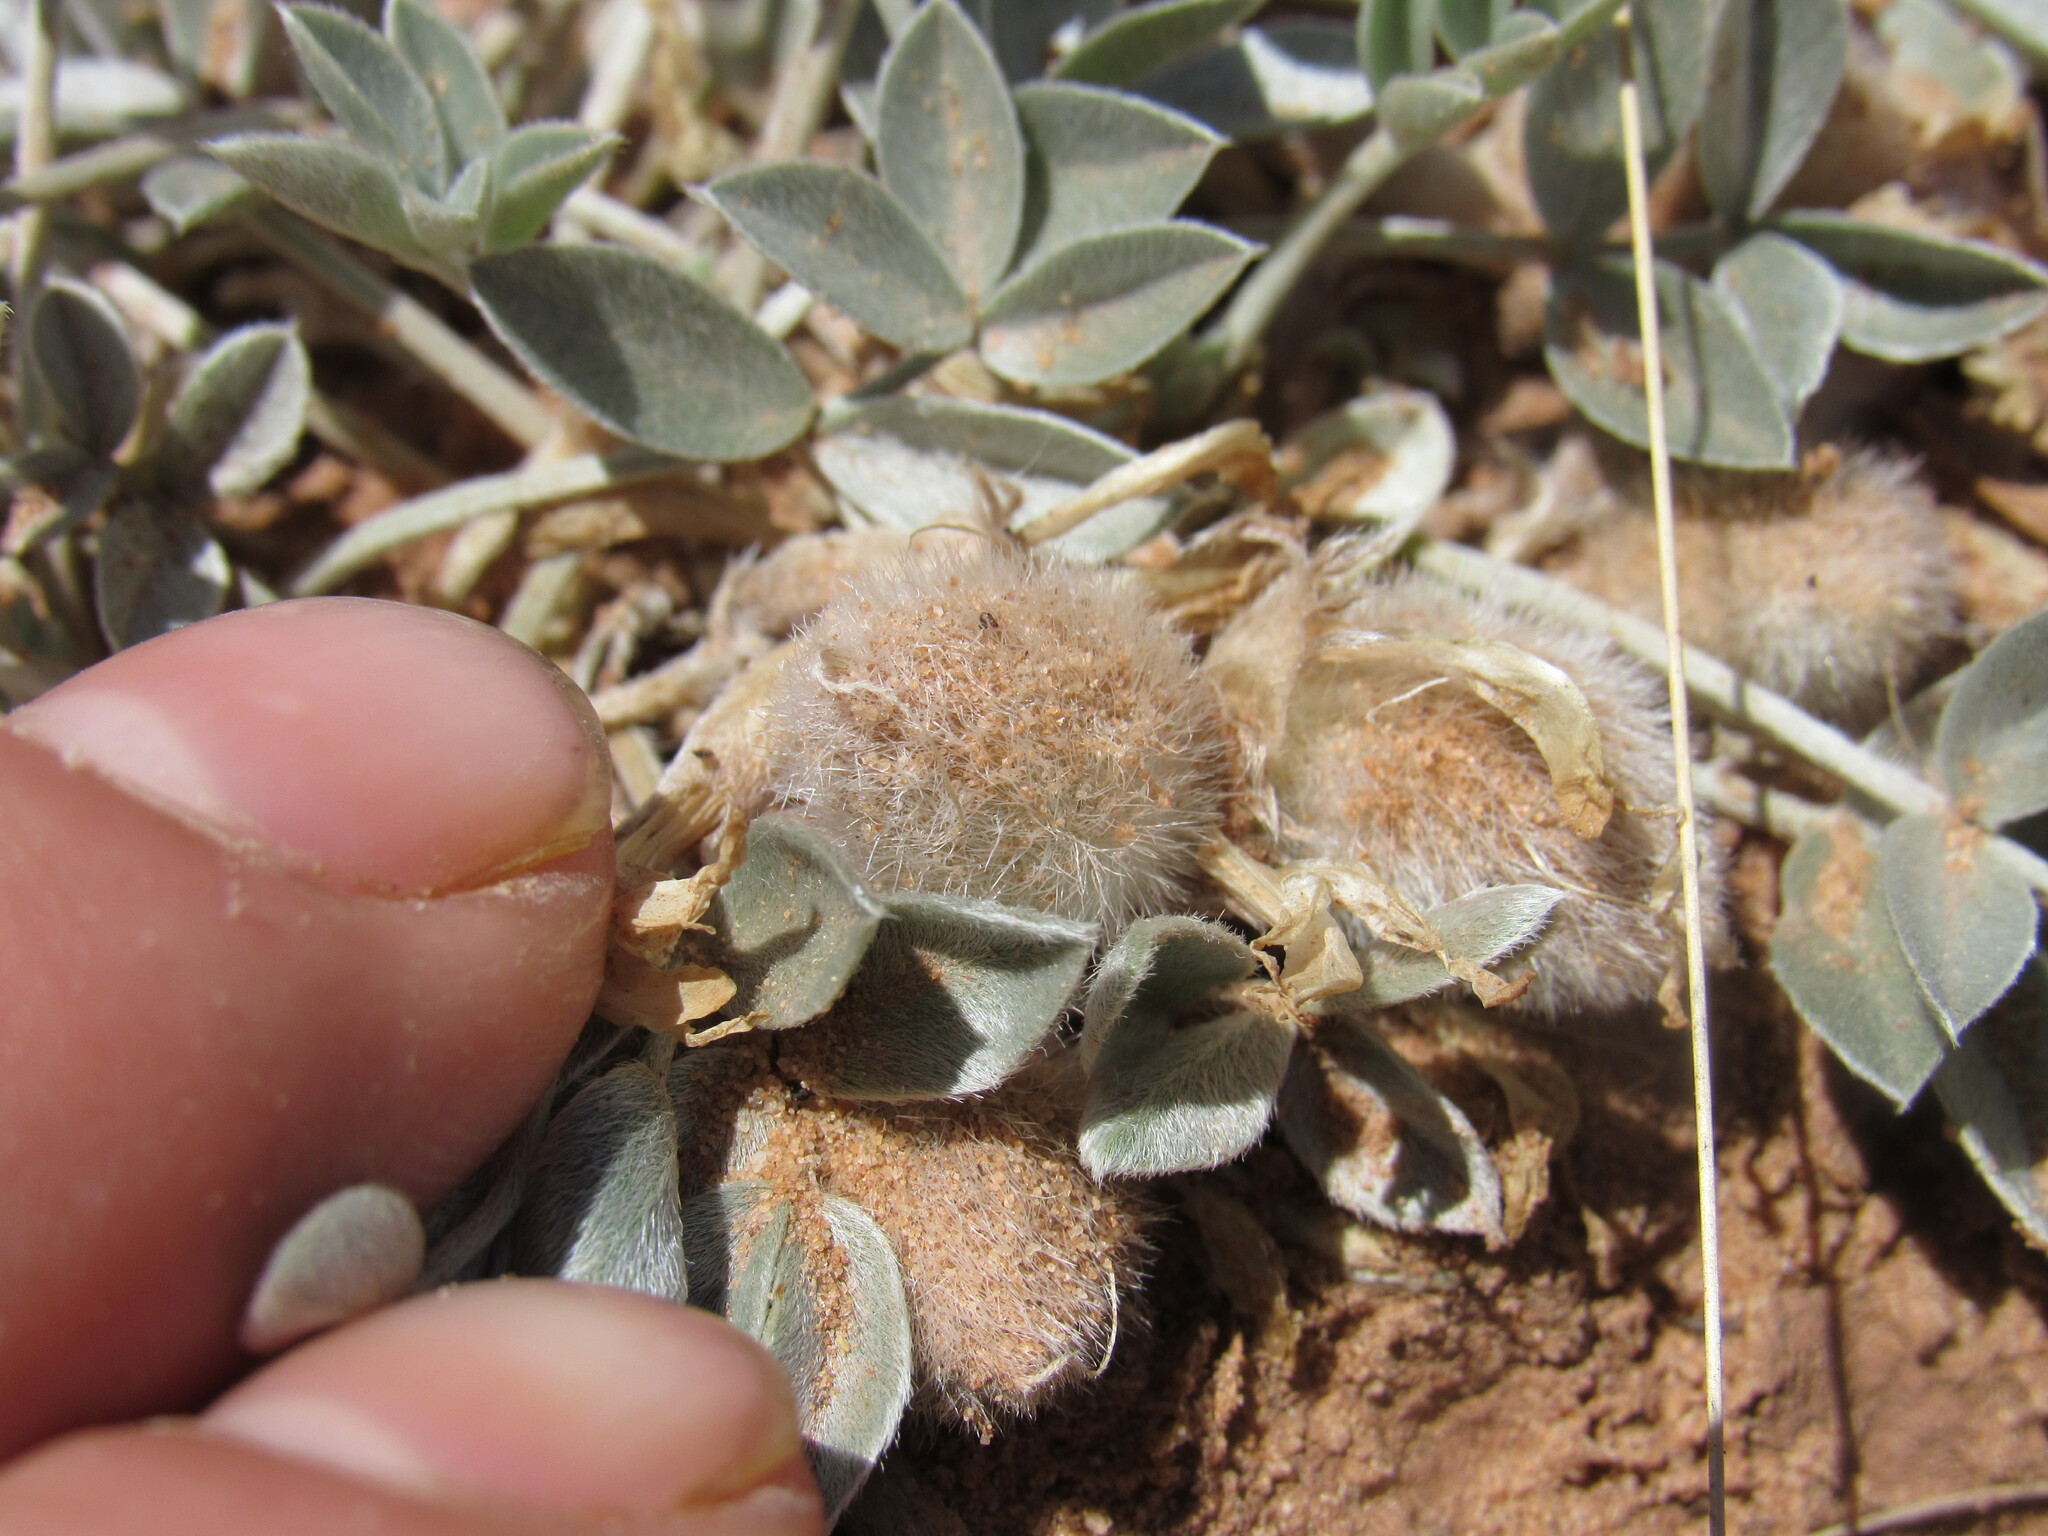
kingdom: Plantae
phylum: Tracheophyta
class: Magnoliopsida
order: Fabales
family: Fabaceae
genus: Astragalus
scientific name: Astragalus newberryi
